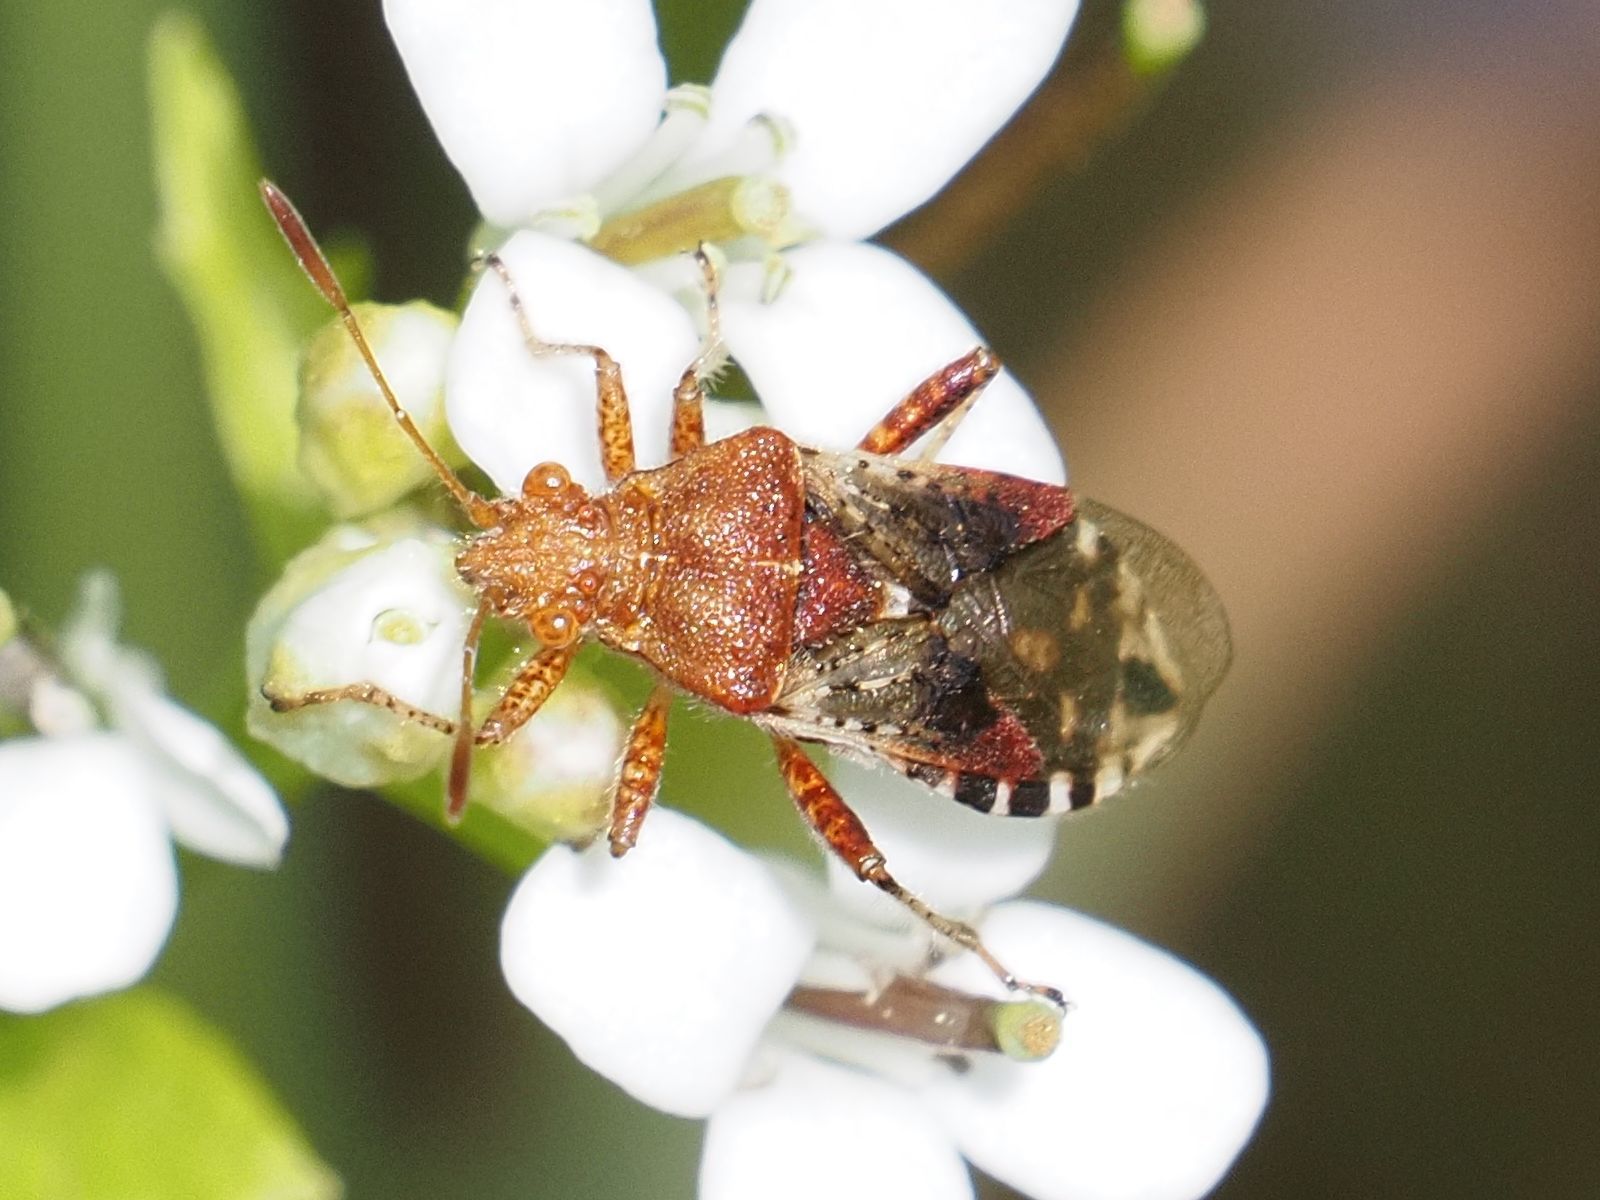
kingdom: Animalia
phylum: Arthropoda
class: Insecta
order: Hemiptera
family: Rhopalidae
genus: Rhopalus
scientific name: Rhopalus subrufus
